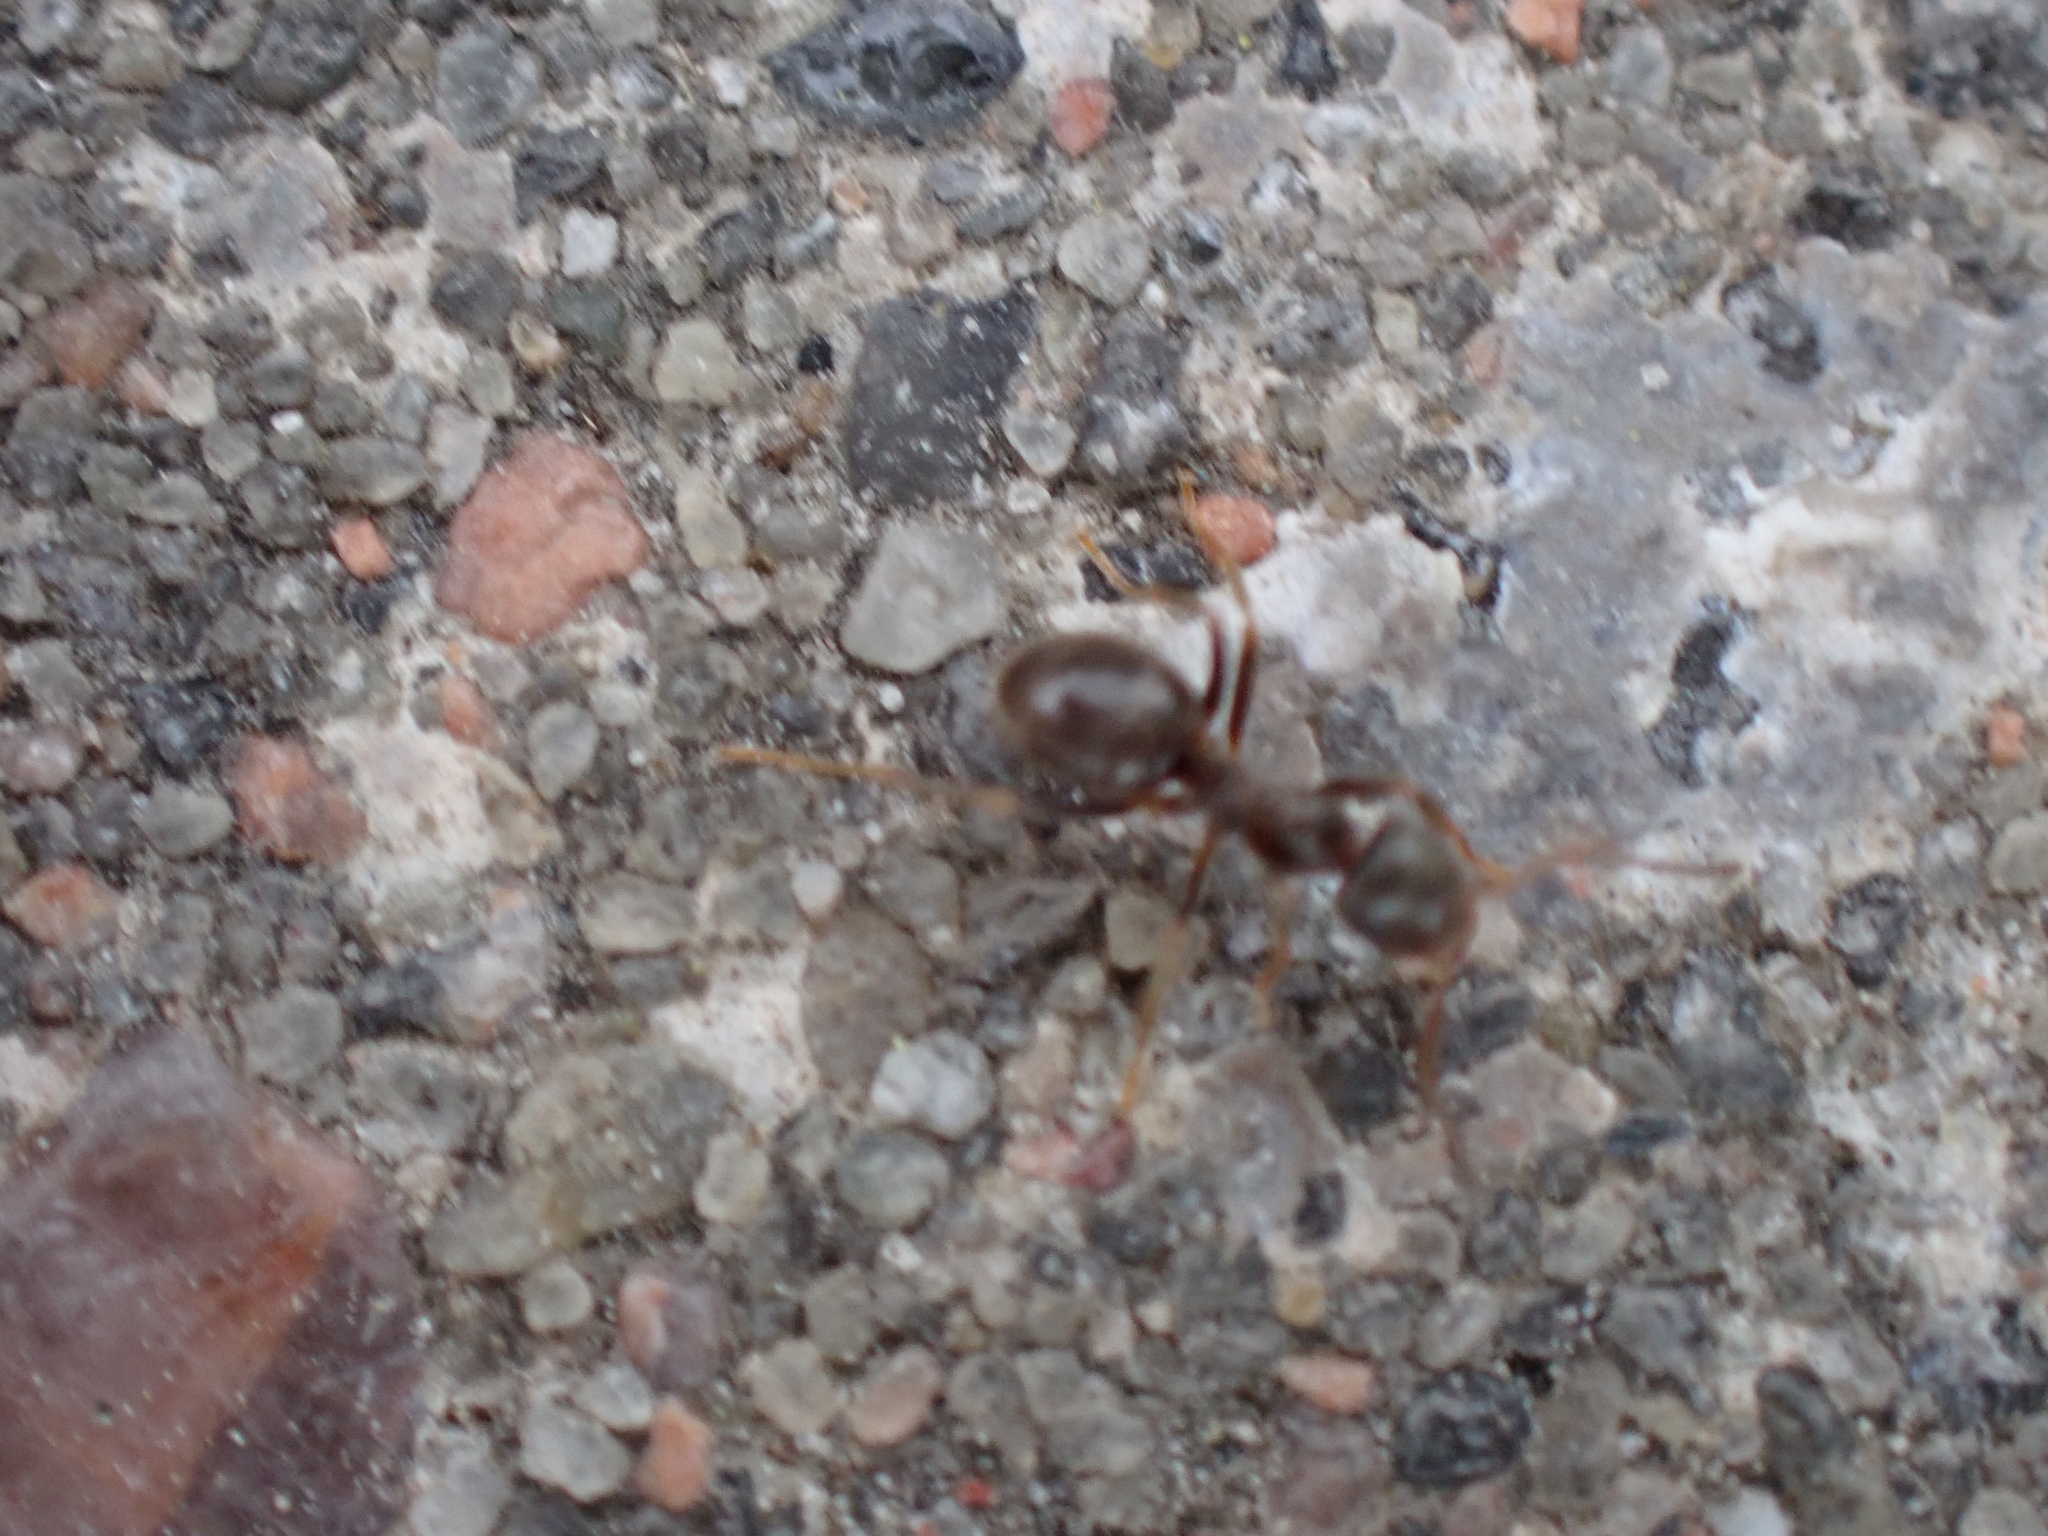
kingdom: Animalia
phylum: Arthropoda
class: Insecta
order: Hymenoptera
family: Formicidae
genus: Lasius
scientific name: Lasius
